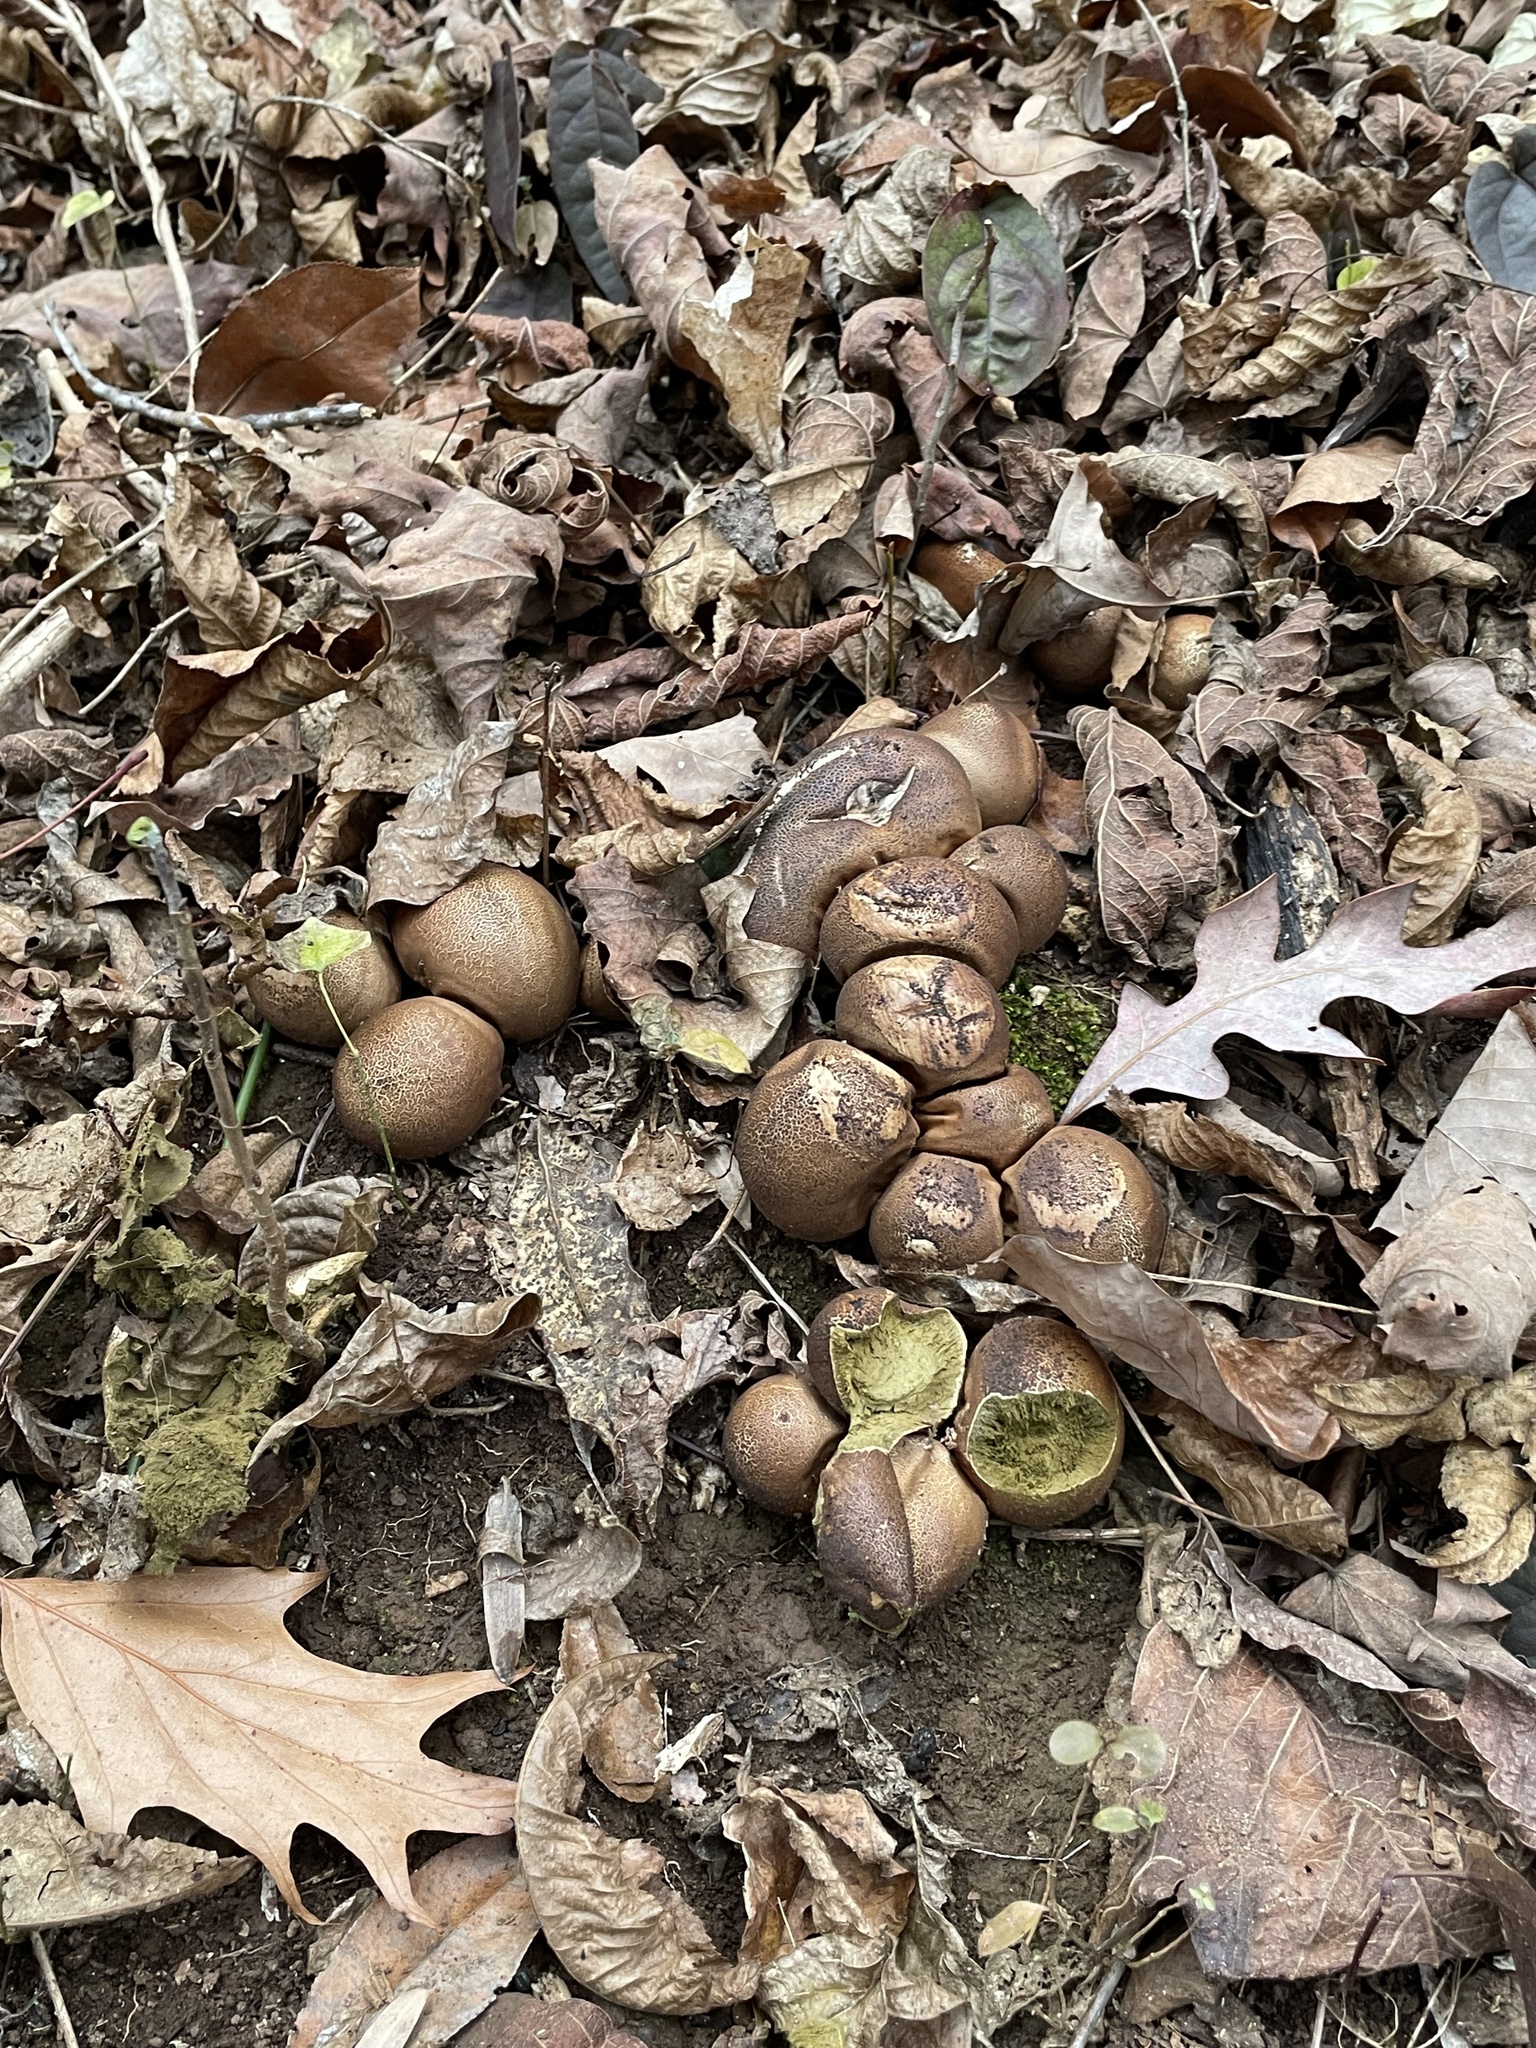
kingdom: Fungi
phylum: Basidiomycota
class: Agaricomycetes
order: Agaricales
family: Lycoperdaceae
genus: Apioperdon
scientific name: Apioperdon pyriforme
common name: Pear-shaped puffball
